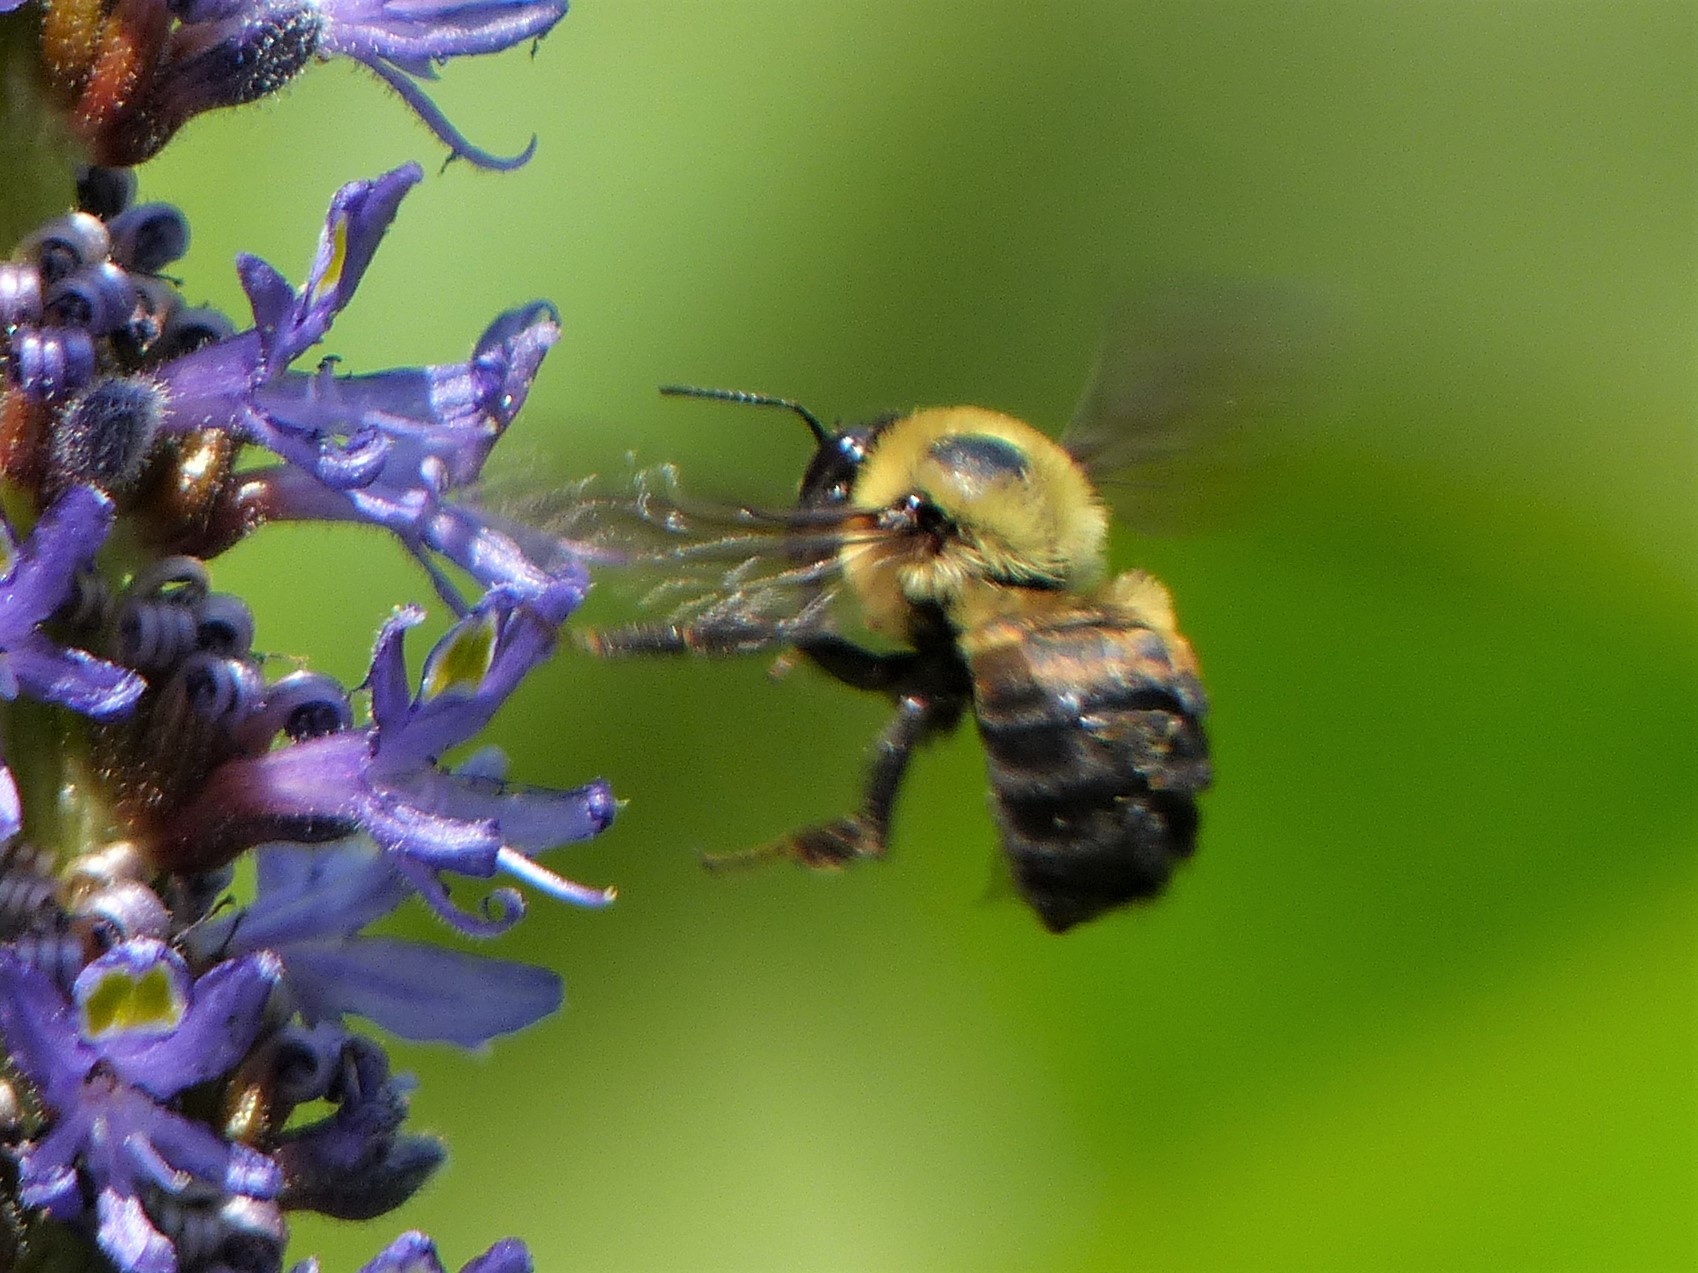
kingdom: Animalia
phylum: Arthropoda
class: Insecta
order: Hymenoptera
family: Apidae
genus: Bombus
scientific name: Bombus griseocollis
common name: Brown-belted bumble bee
